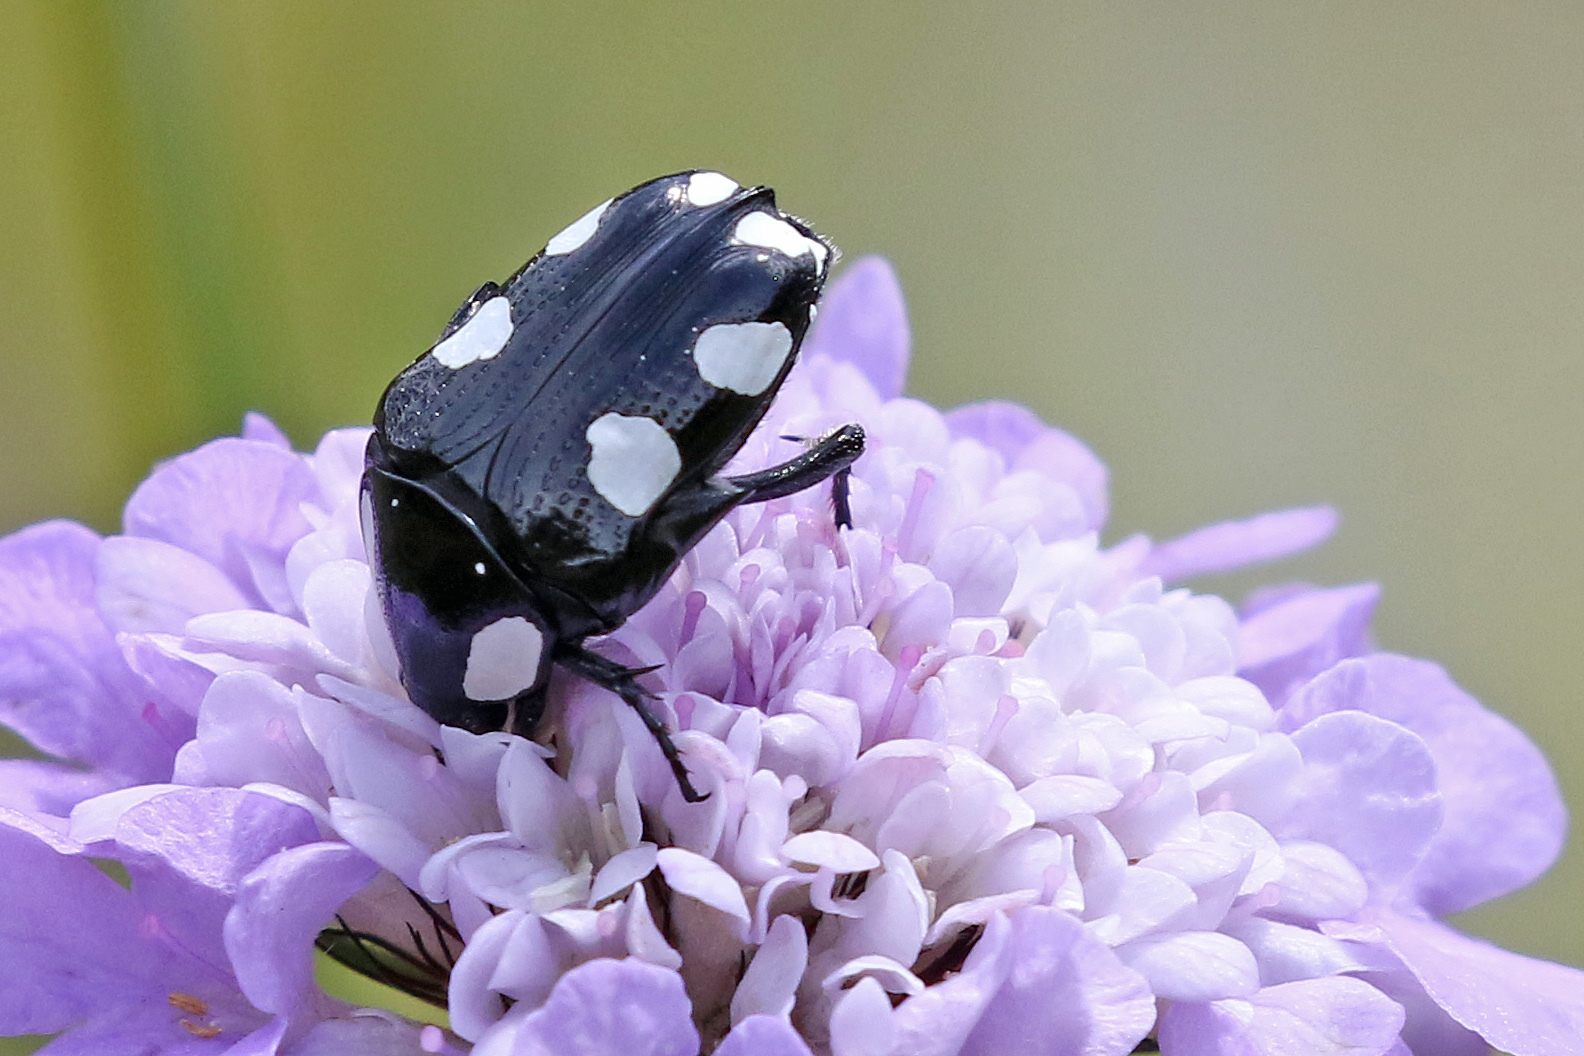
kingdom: Animalia
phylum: Arthropoda
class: Insecta
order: Coleoptera
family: Scarabaeidae
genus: Mausoleopsis
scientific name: Mausoleopsis amabilis
